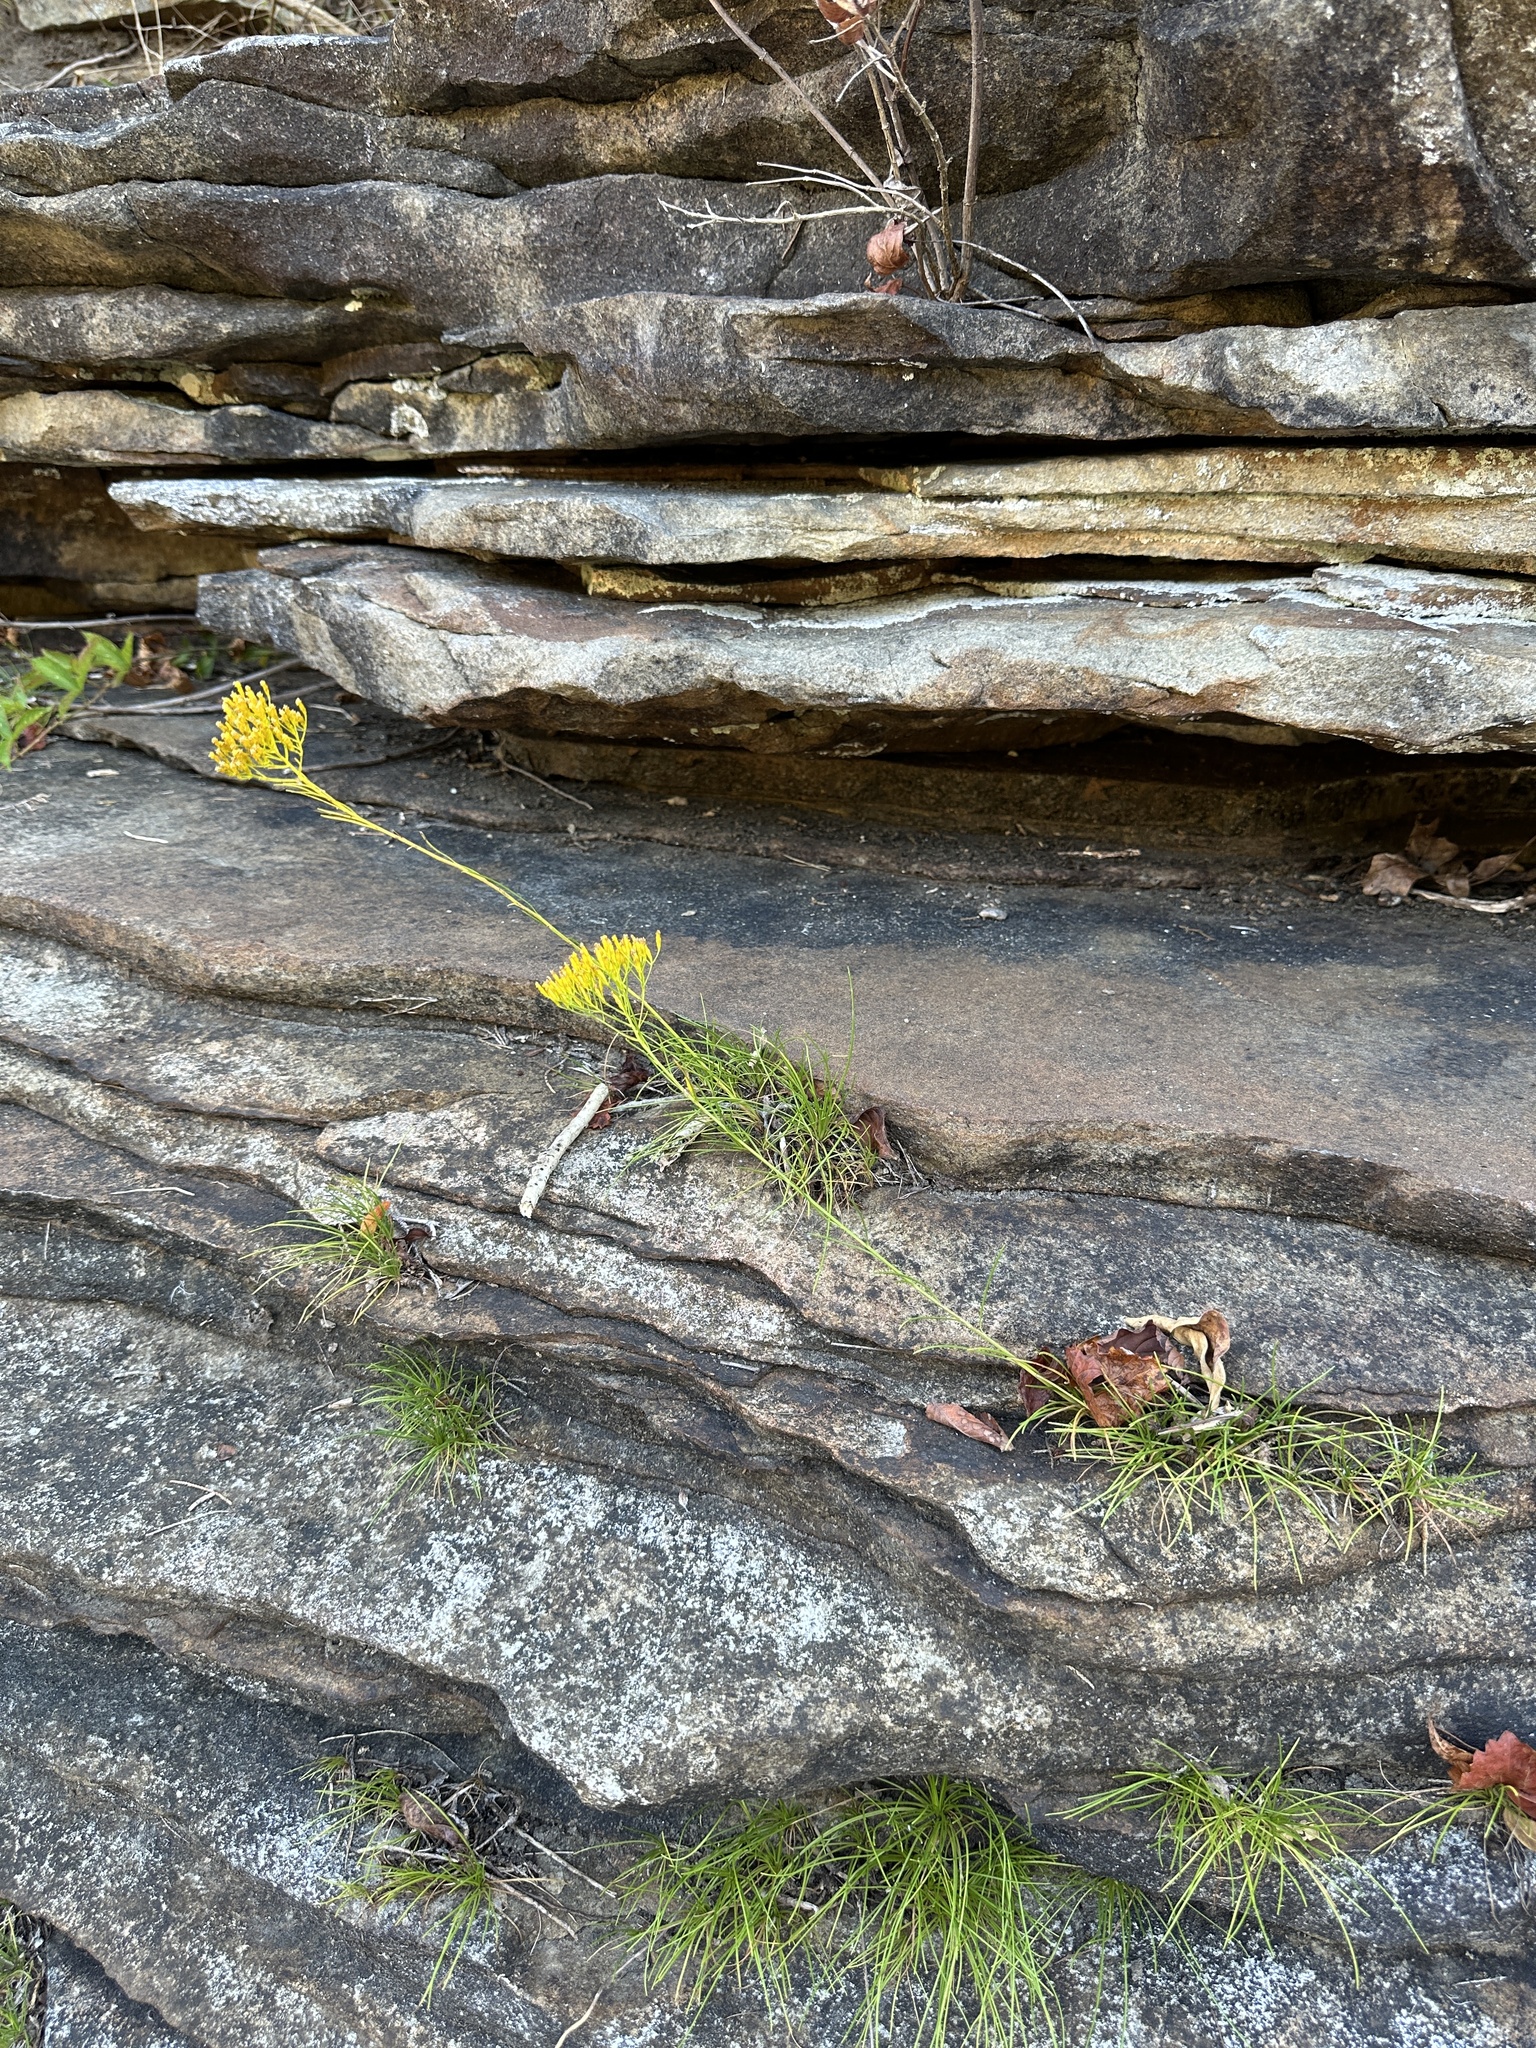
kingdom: Plantae
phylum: Tracheophyta
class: Magnoliopsida
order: Asterales
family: Asteraceae
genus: Bigelowia
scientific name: Bigelowia nuttallii
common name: Nuttall's rayless-goldenrod
